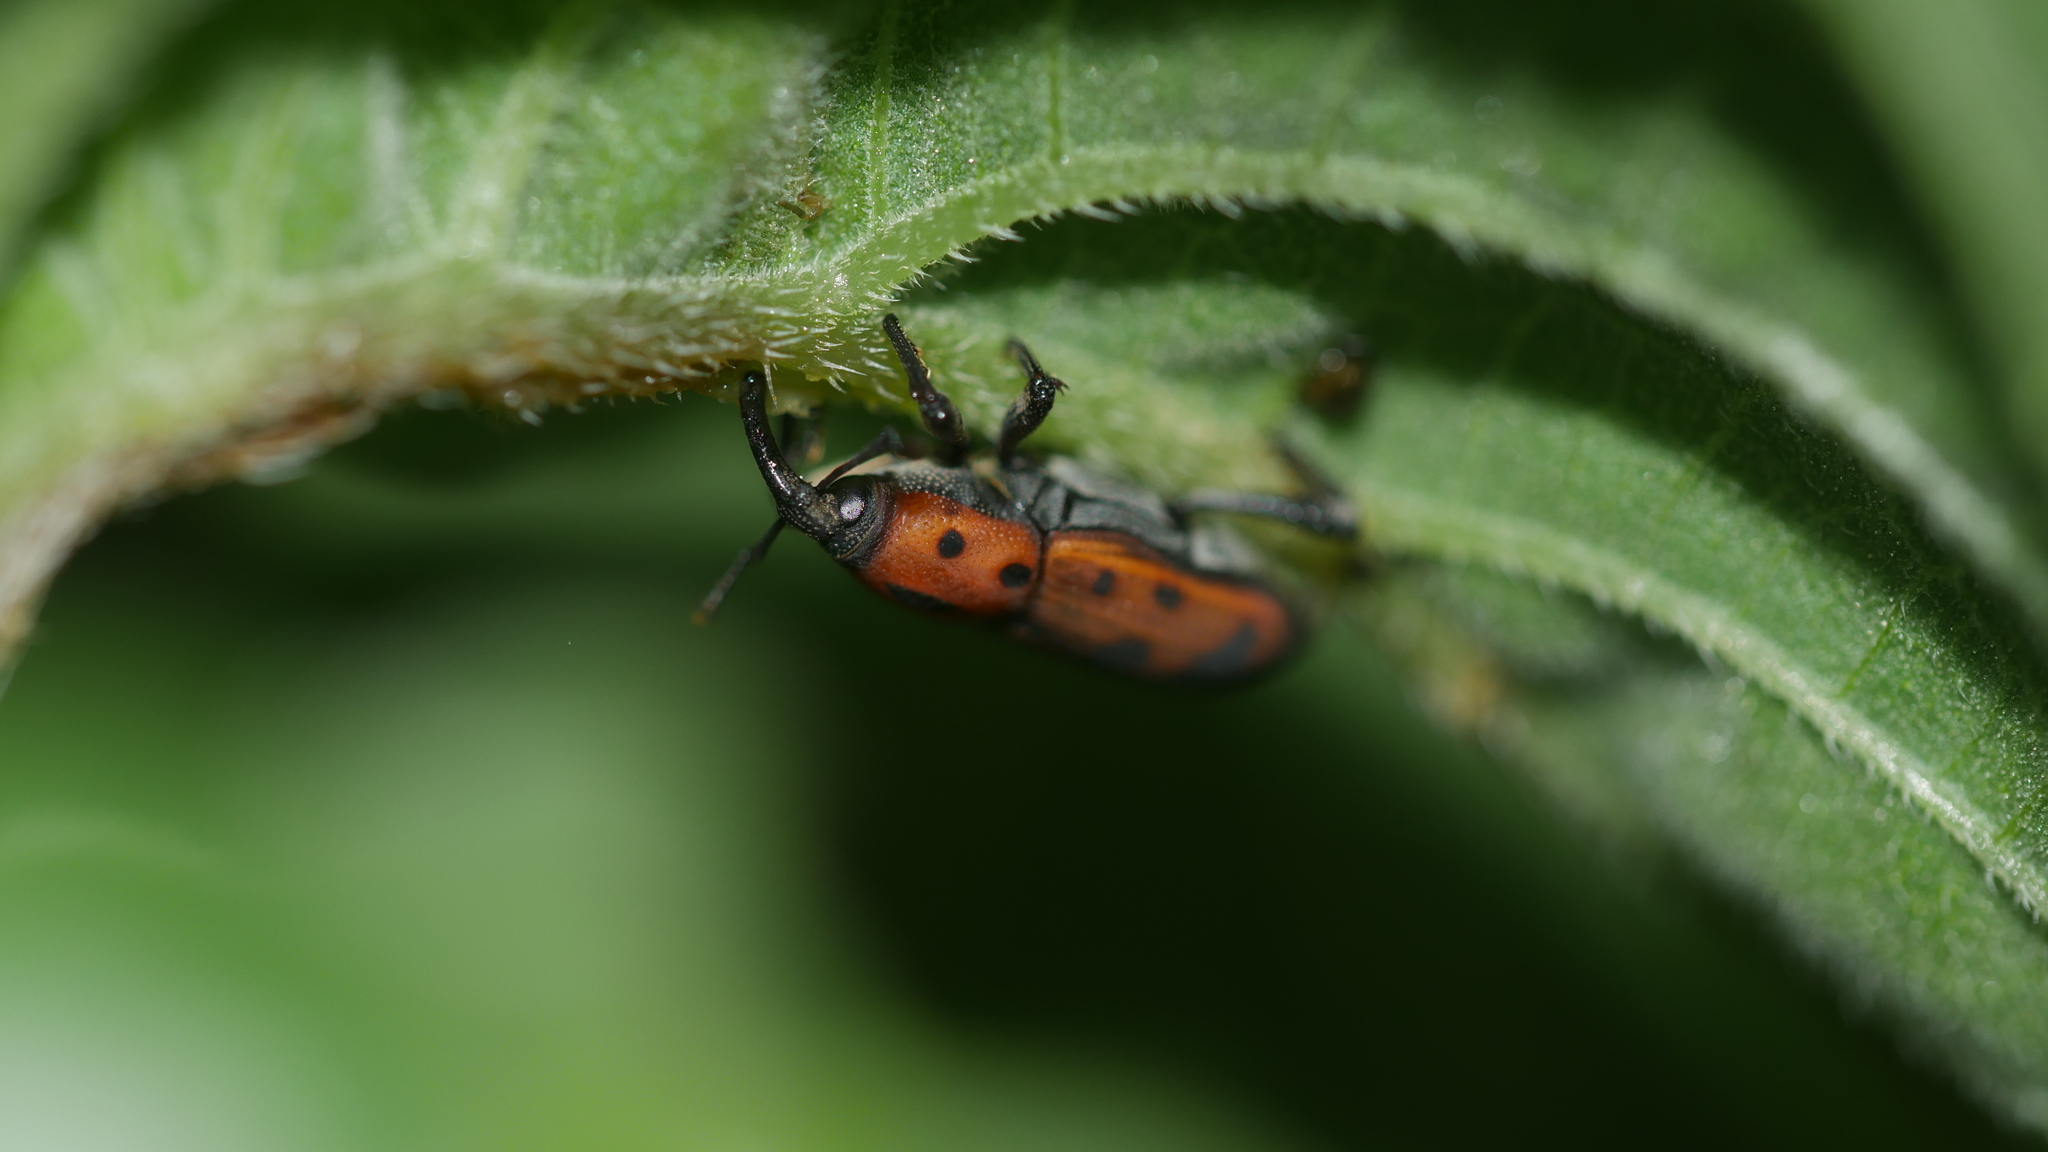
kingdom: Animalia
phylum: Arthropoda
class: Insecta
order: Coleoptera
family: Dryophthoridae
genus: Rhodobaenus
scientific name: Rhodobaenus quinquepunctatus
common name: Cocklebur weevil
